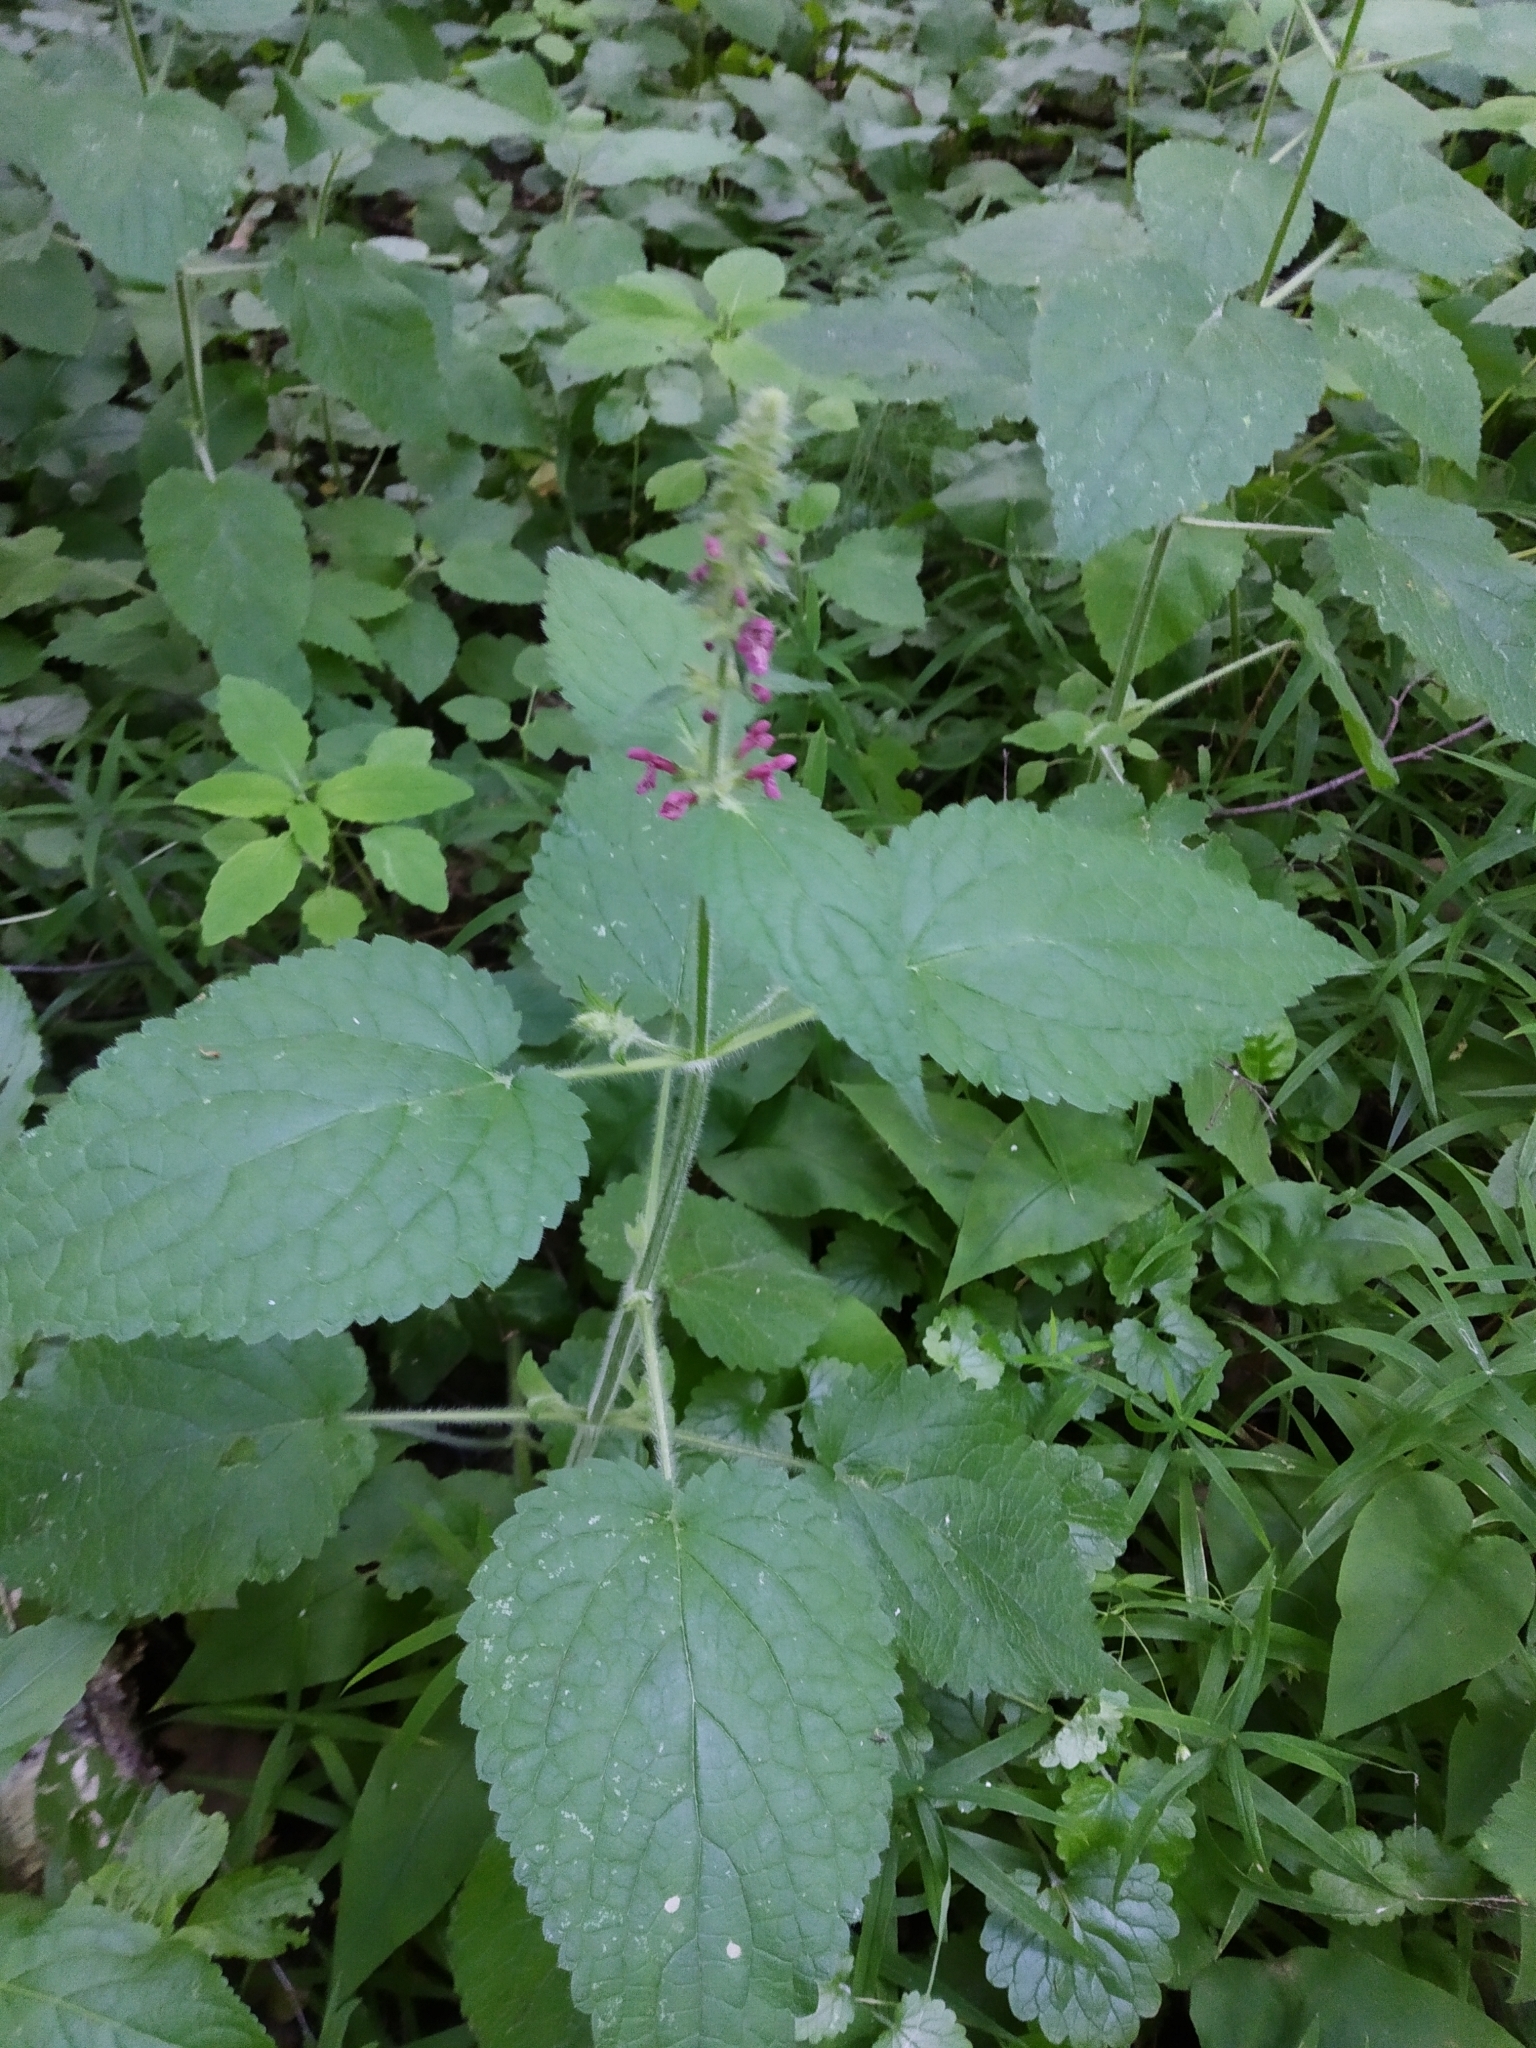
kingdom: Plantae
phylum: Tracheophyta
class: Magnoliopsida
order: Lamiales
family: Lamiaceae
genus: Stachys
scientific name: Stachys sylvatica
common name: Hedge woundwort
